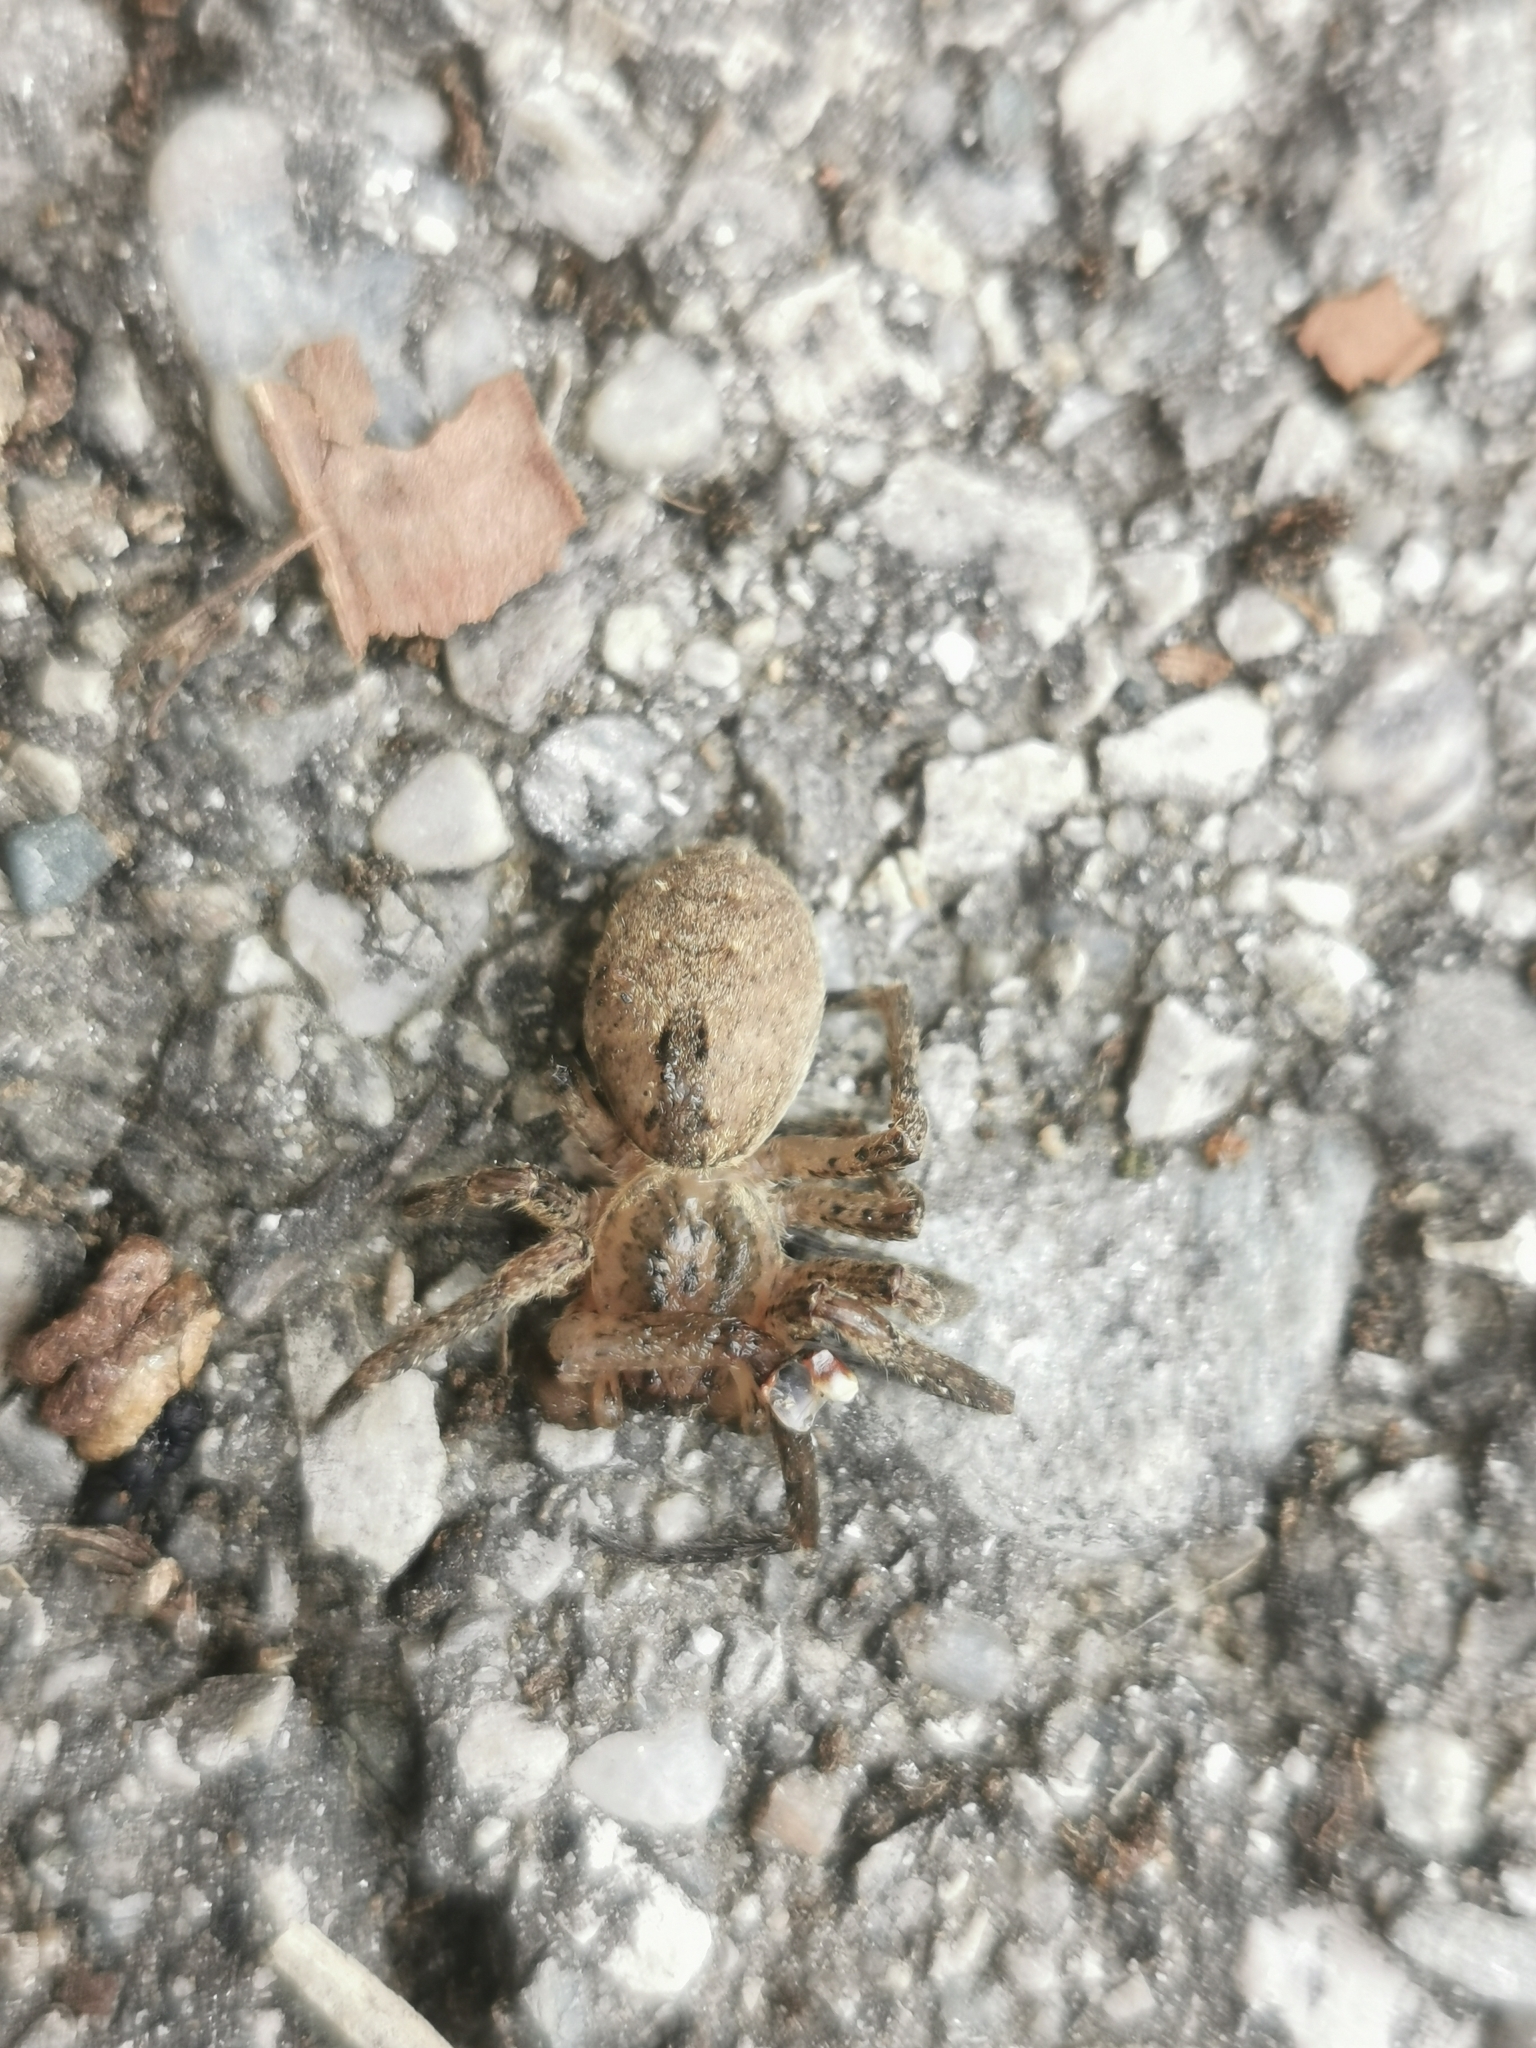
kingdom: Animalia
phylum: Arthropoda
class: Arachnida
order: Araneae
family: Zoropsidae
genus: Zoropsis
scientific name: Zoropsis spinimana
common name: Zoropsid spider
